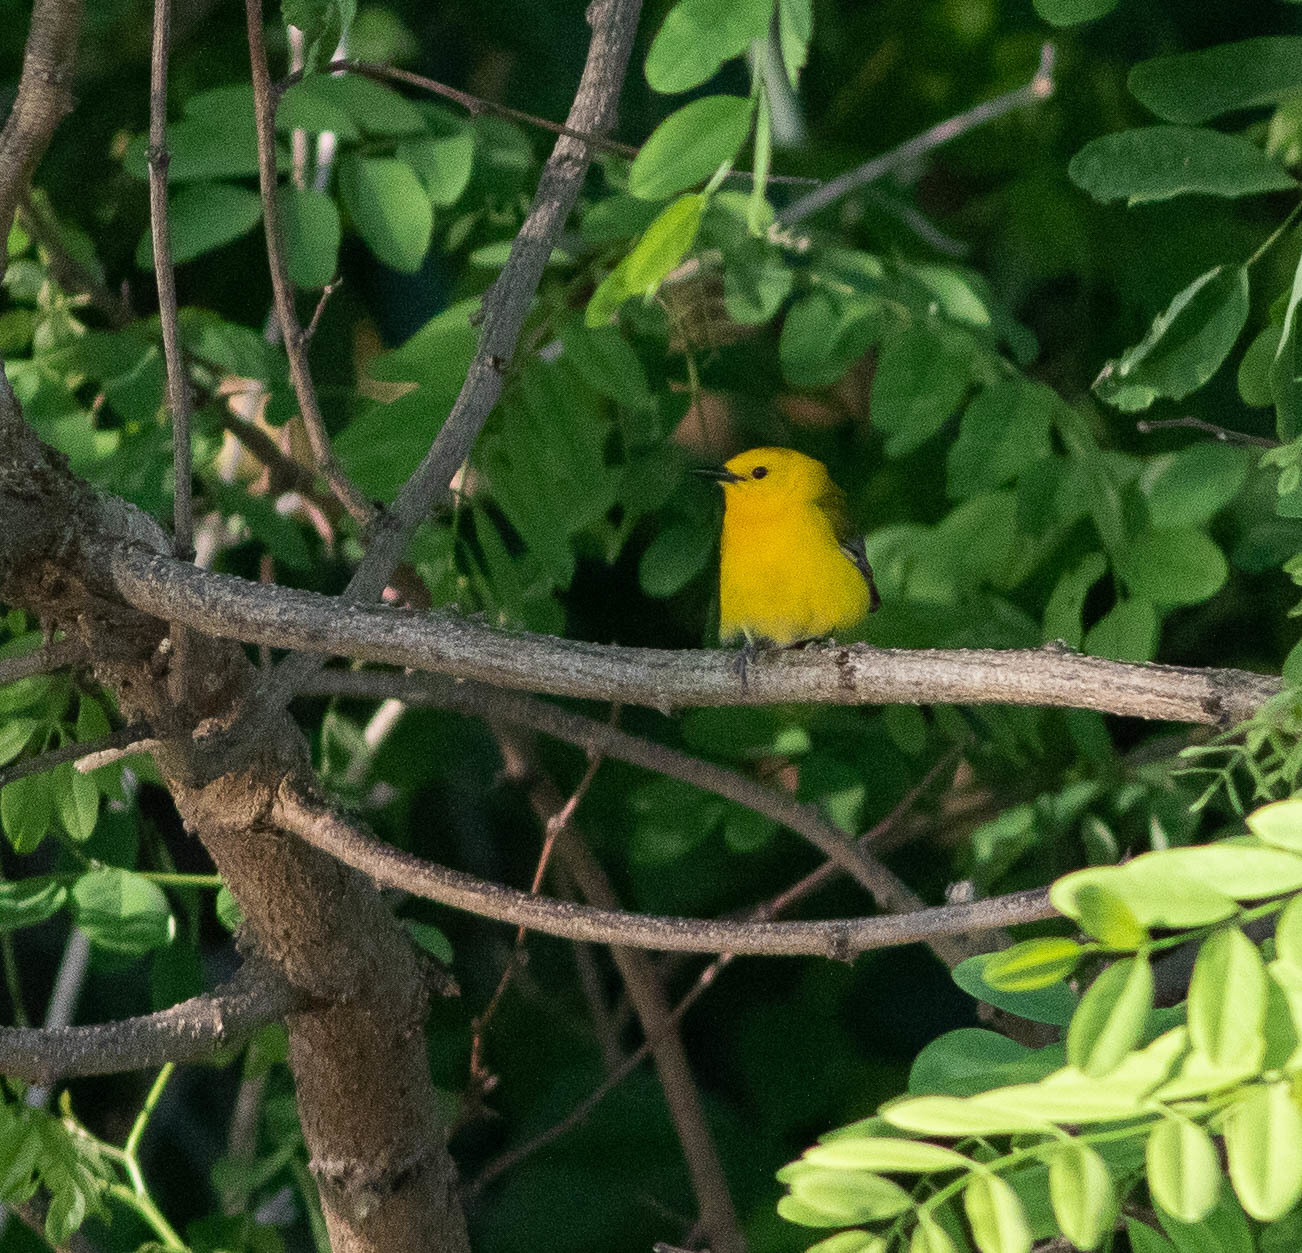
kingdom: Animalia
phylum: Chordata
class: Aves
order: Passeriformes
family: Parulidae
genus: Protonotaria
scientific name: Protonotaria citrea
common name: Prothonotary warbler
